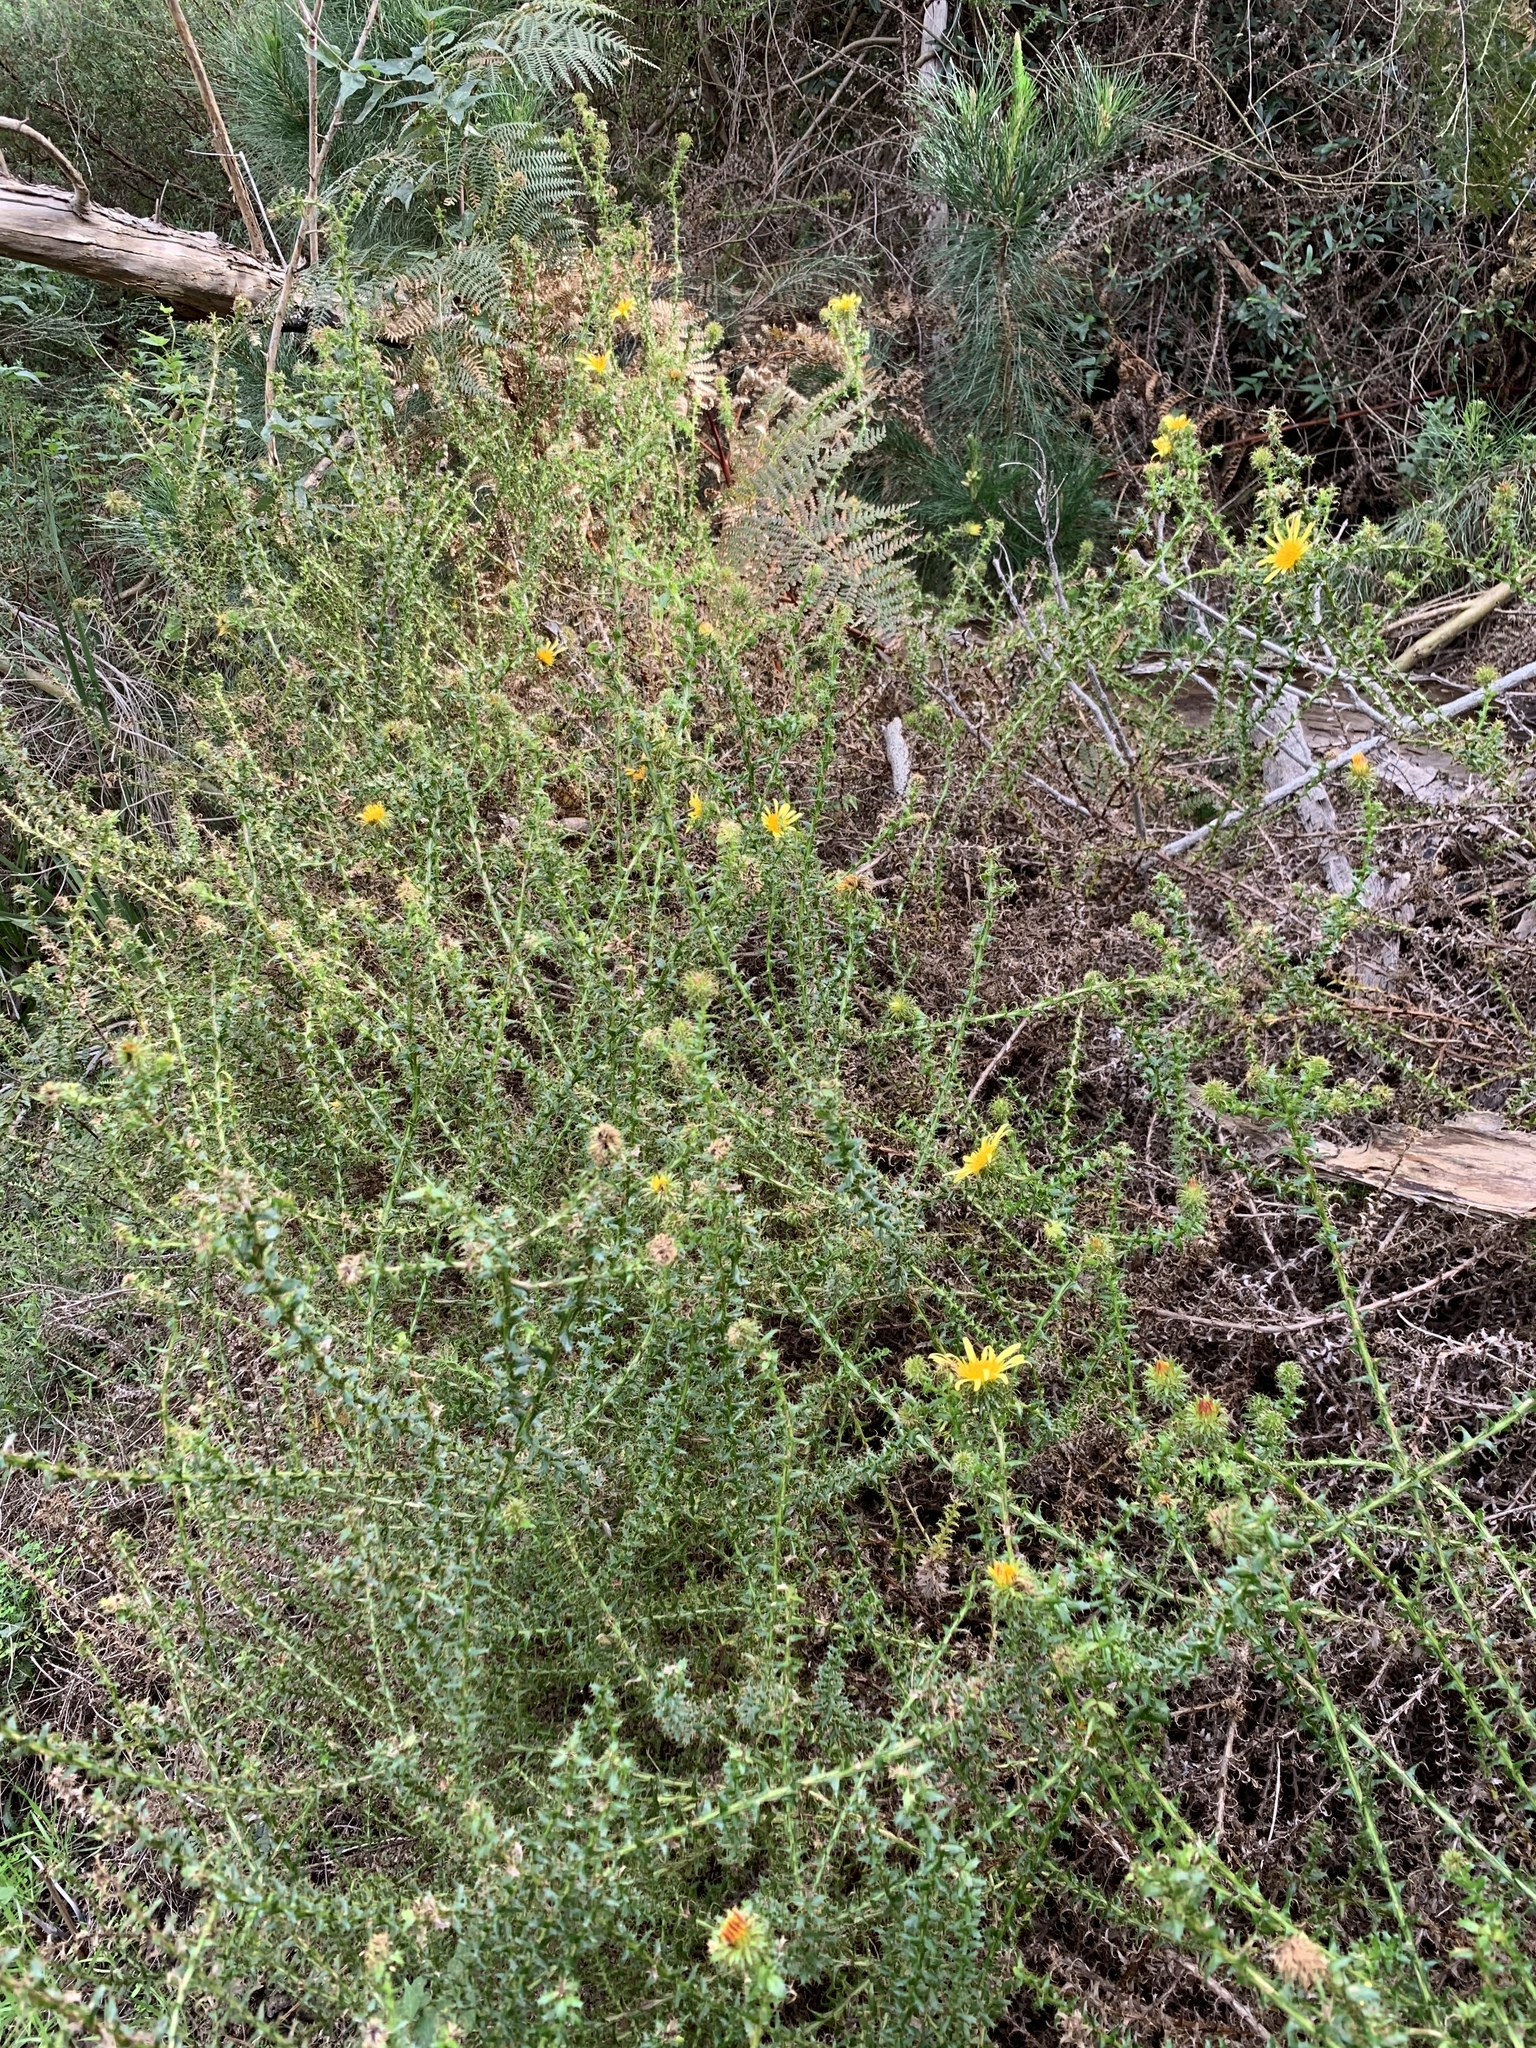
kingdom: Plantae
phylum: Tracheophyta
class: Magnoliopsida
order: Asterales
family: Asteraceae
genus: Cullumia
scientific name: Cullumia setosa
